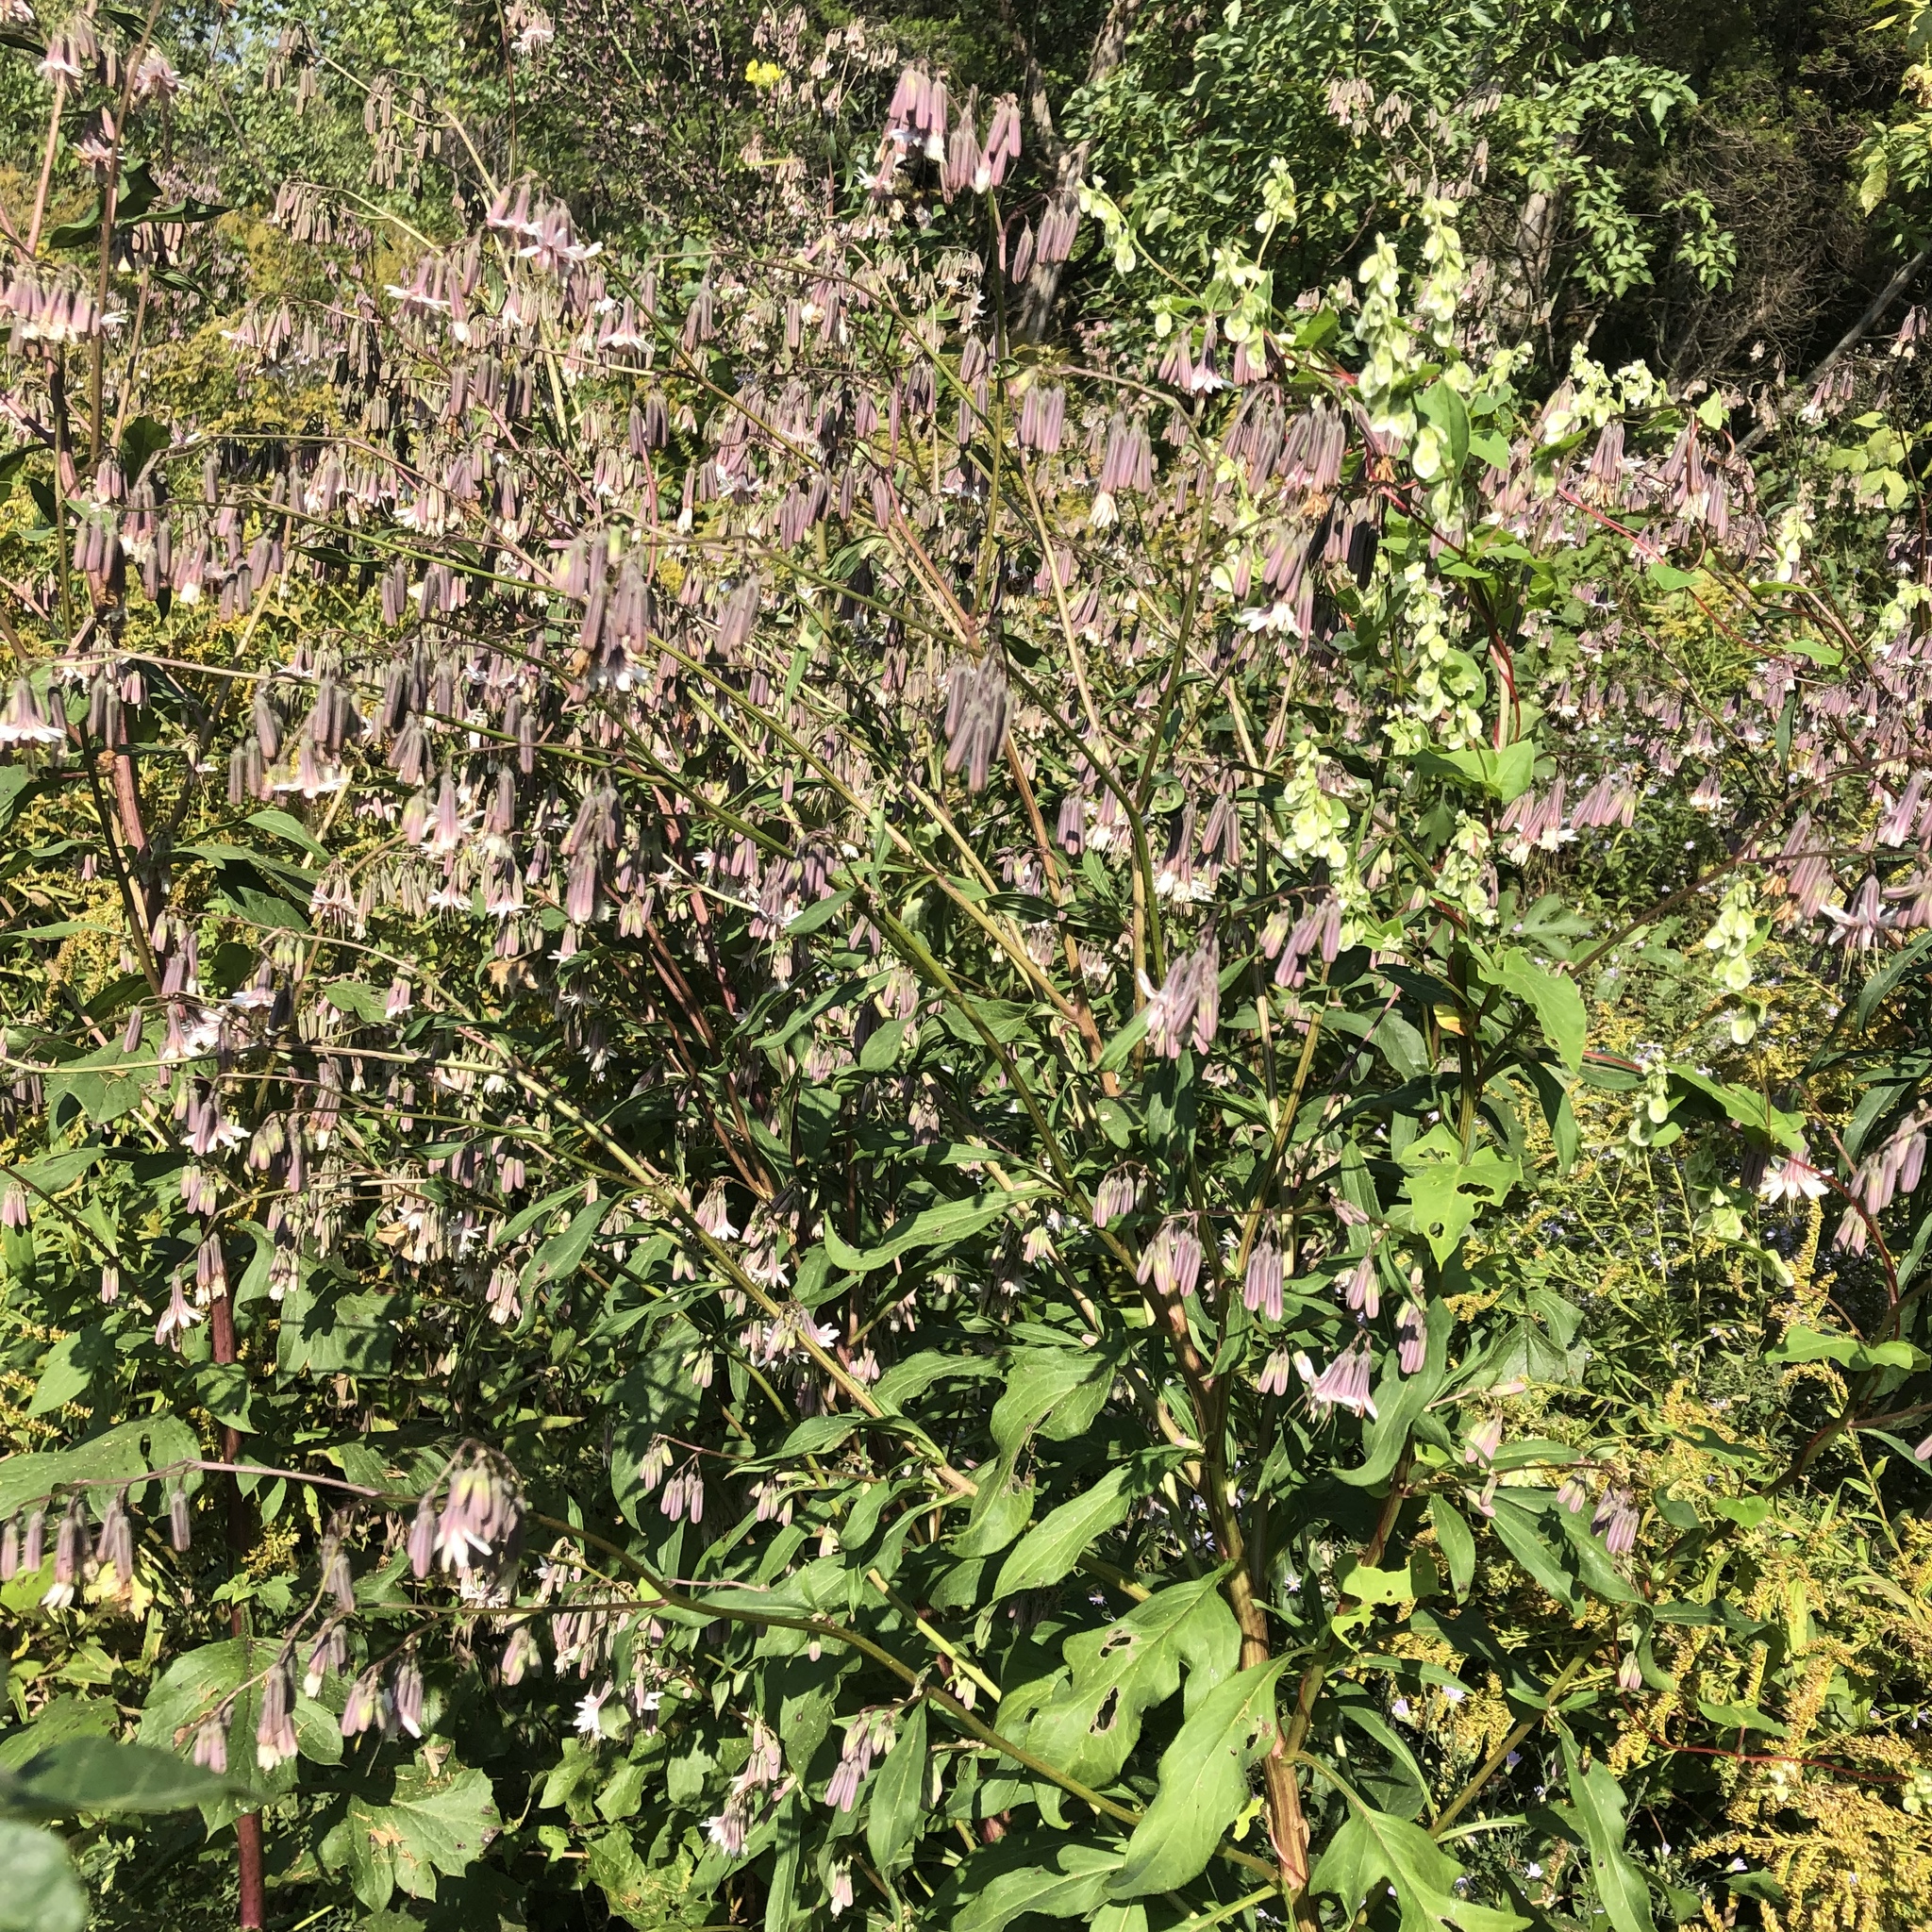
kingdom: Plantae
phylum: Tracheophyta
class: Magnoliopsida
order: Asterales
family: Asteraceae
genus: Nabalus
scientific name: Nabalus albus
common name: White rattlesnakeroot
